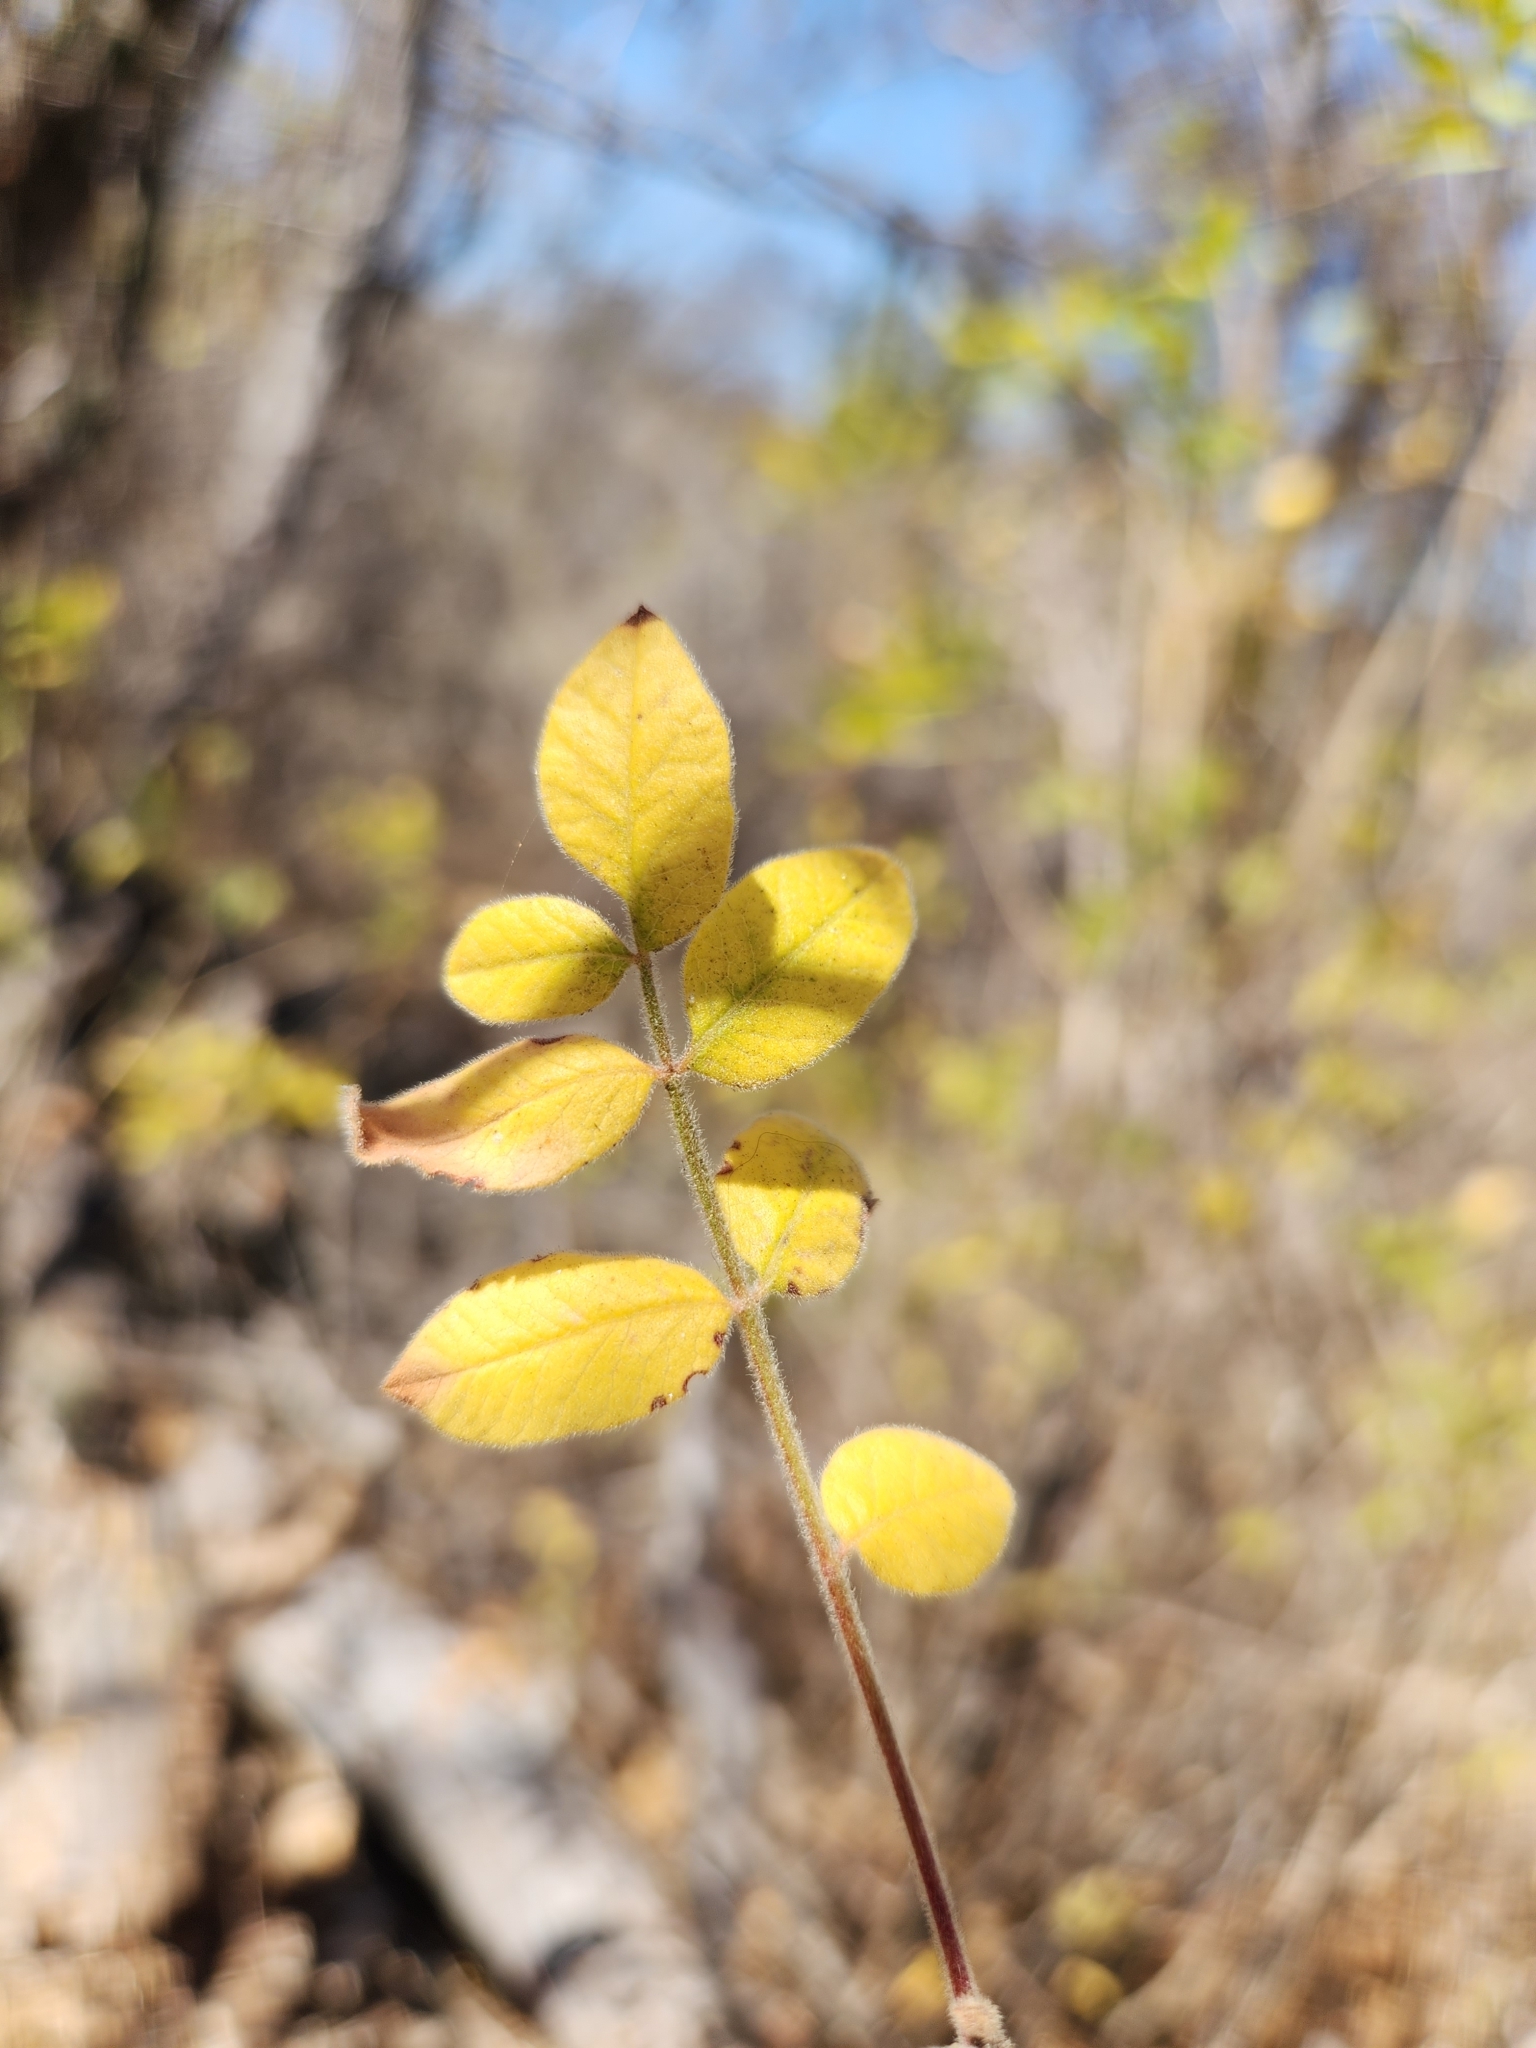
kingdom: Plantae
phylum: Tracheophyta
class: Magnoliopsida
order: Sapindales
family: Anacardiaceae
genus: Cyrtocarpa
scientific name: Cyrtocarpa edulis
